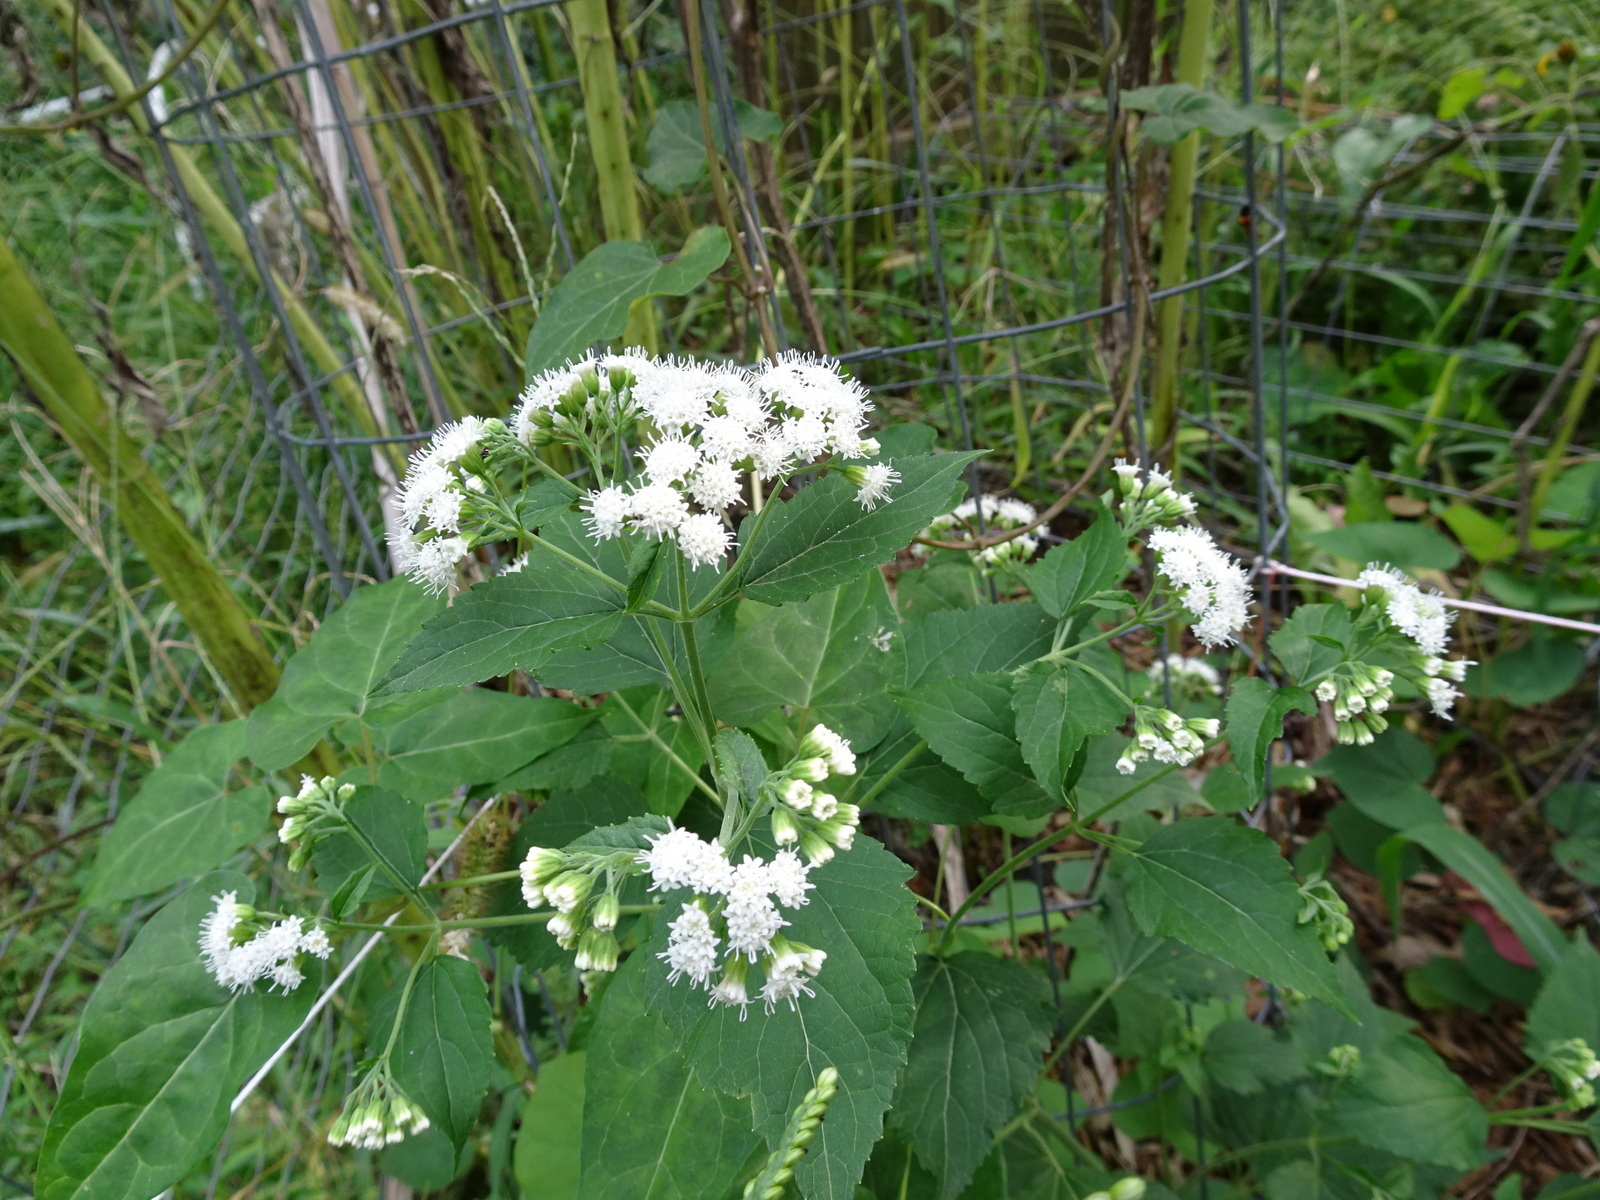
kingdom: Plantae
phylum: Tracheophyta
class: Magnoliopsida
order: Asterales
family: Asteraceae
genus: Ageratina
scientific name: Ageratina altissima
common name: White snakeroot
